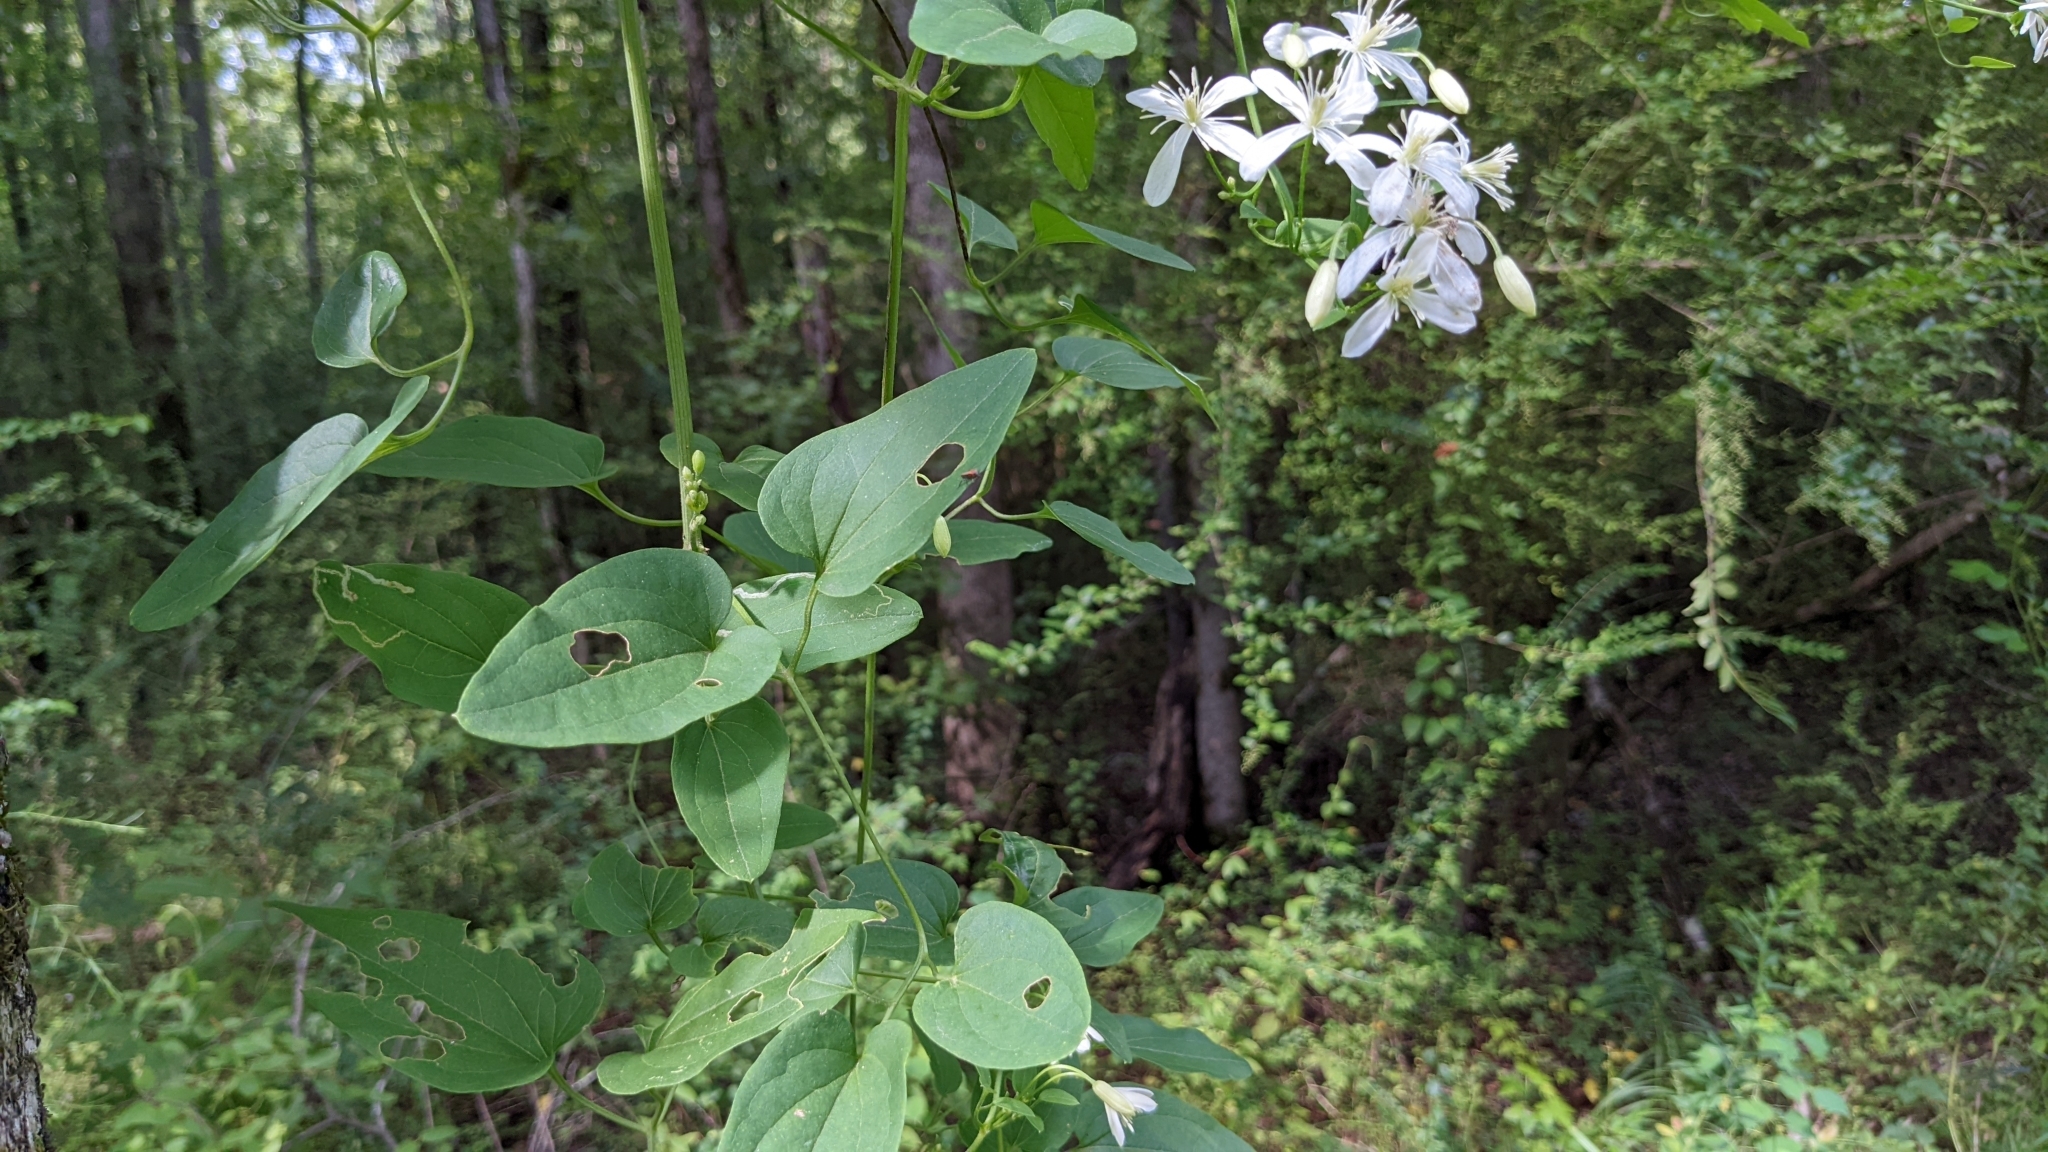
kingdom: Plantae
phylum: Tracheophyta
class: Magnoliopsida
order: Ranunculales
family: Ranunculaceae
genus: Clematis
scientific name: Clematis terniflora
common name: Sweet autumn clematis
